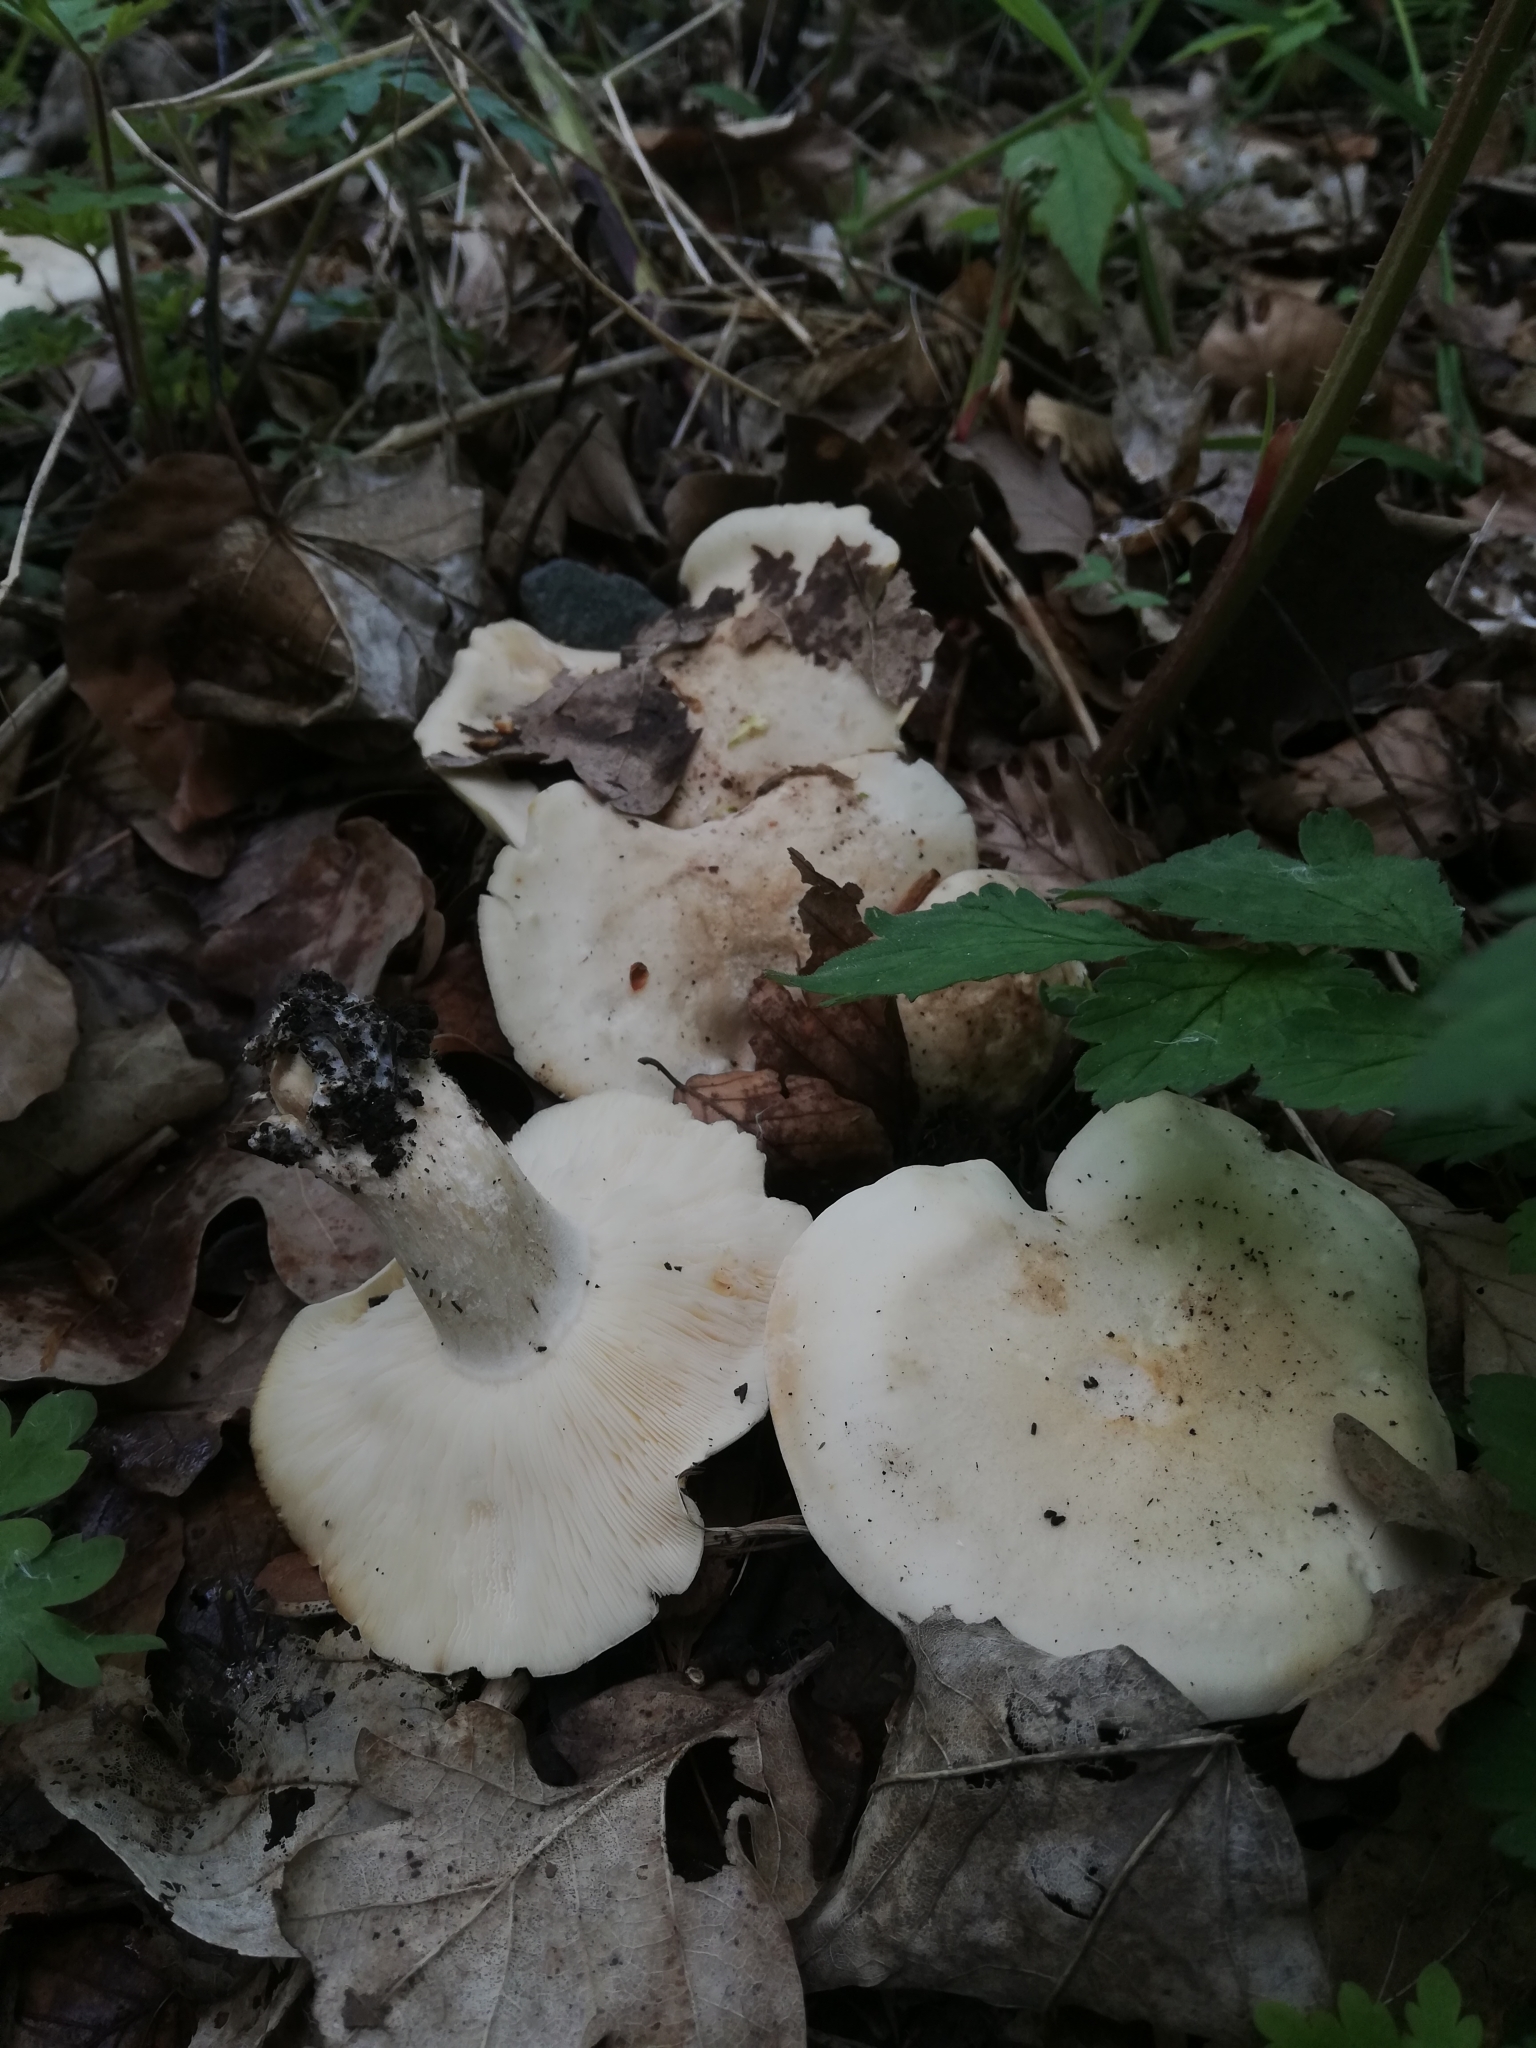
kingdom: Fungi
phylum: Basidiomycota
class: Agaricomycetes
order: Agaricales
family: Lyophyllaceae
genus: Calocybe
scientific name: Calocybe gambosa
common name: St. george's mushroom
